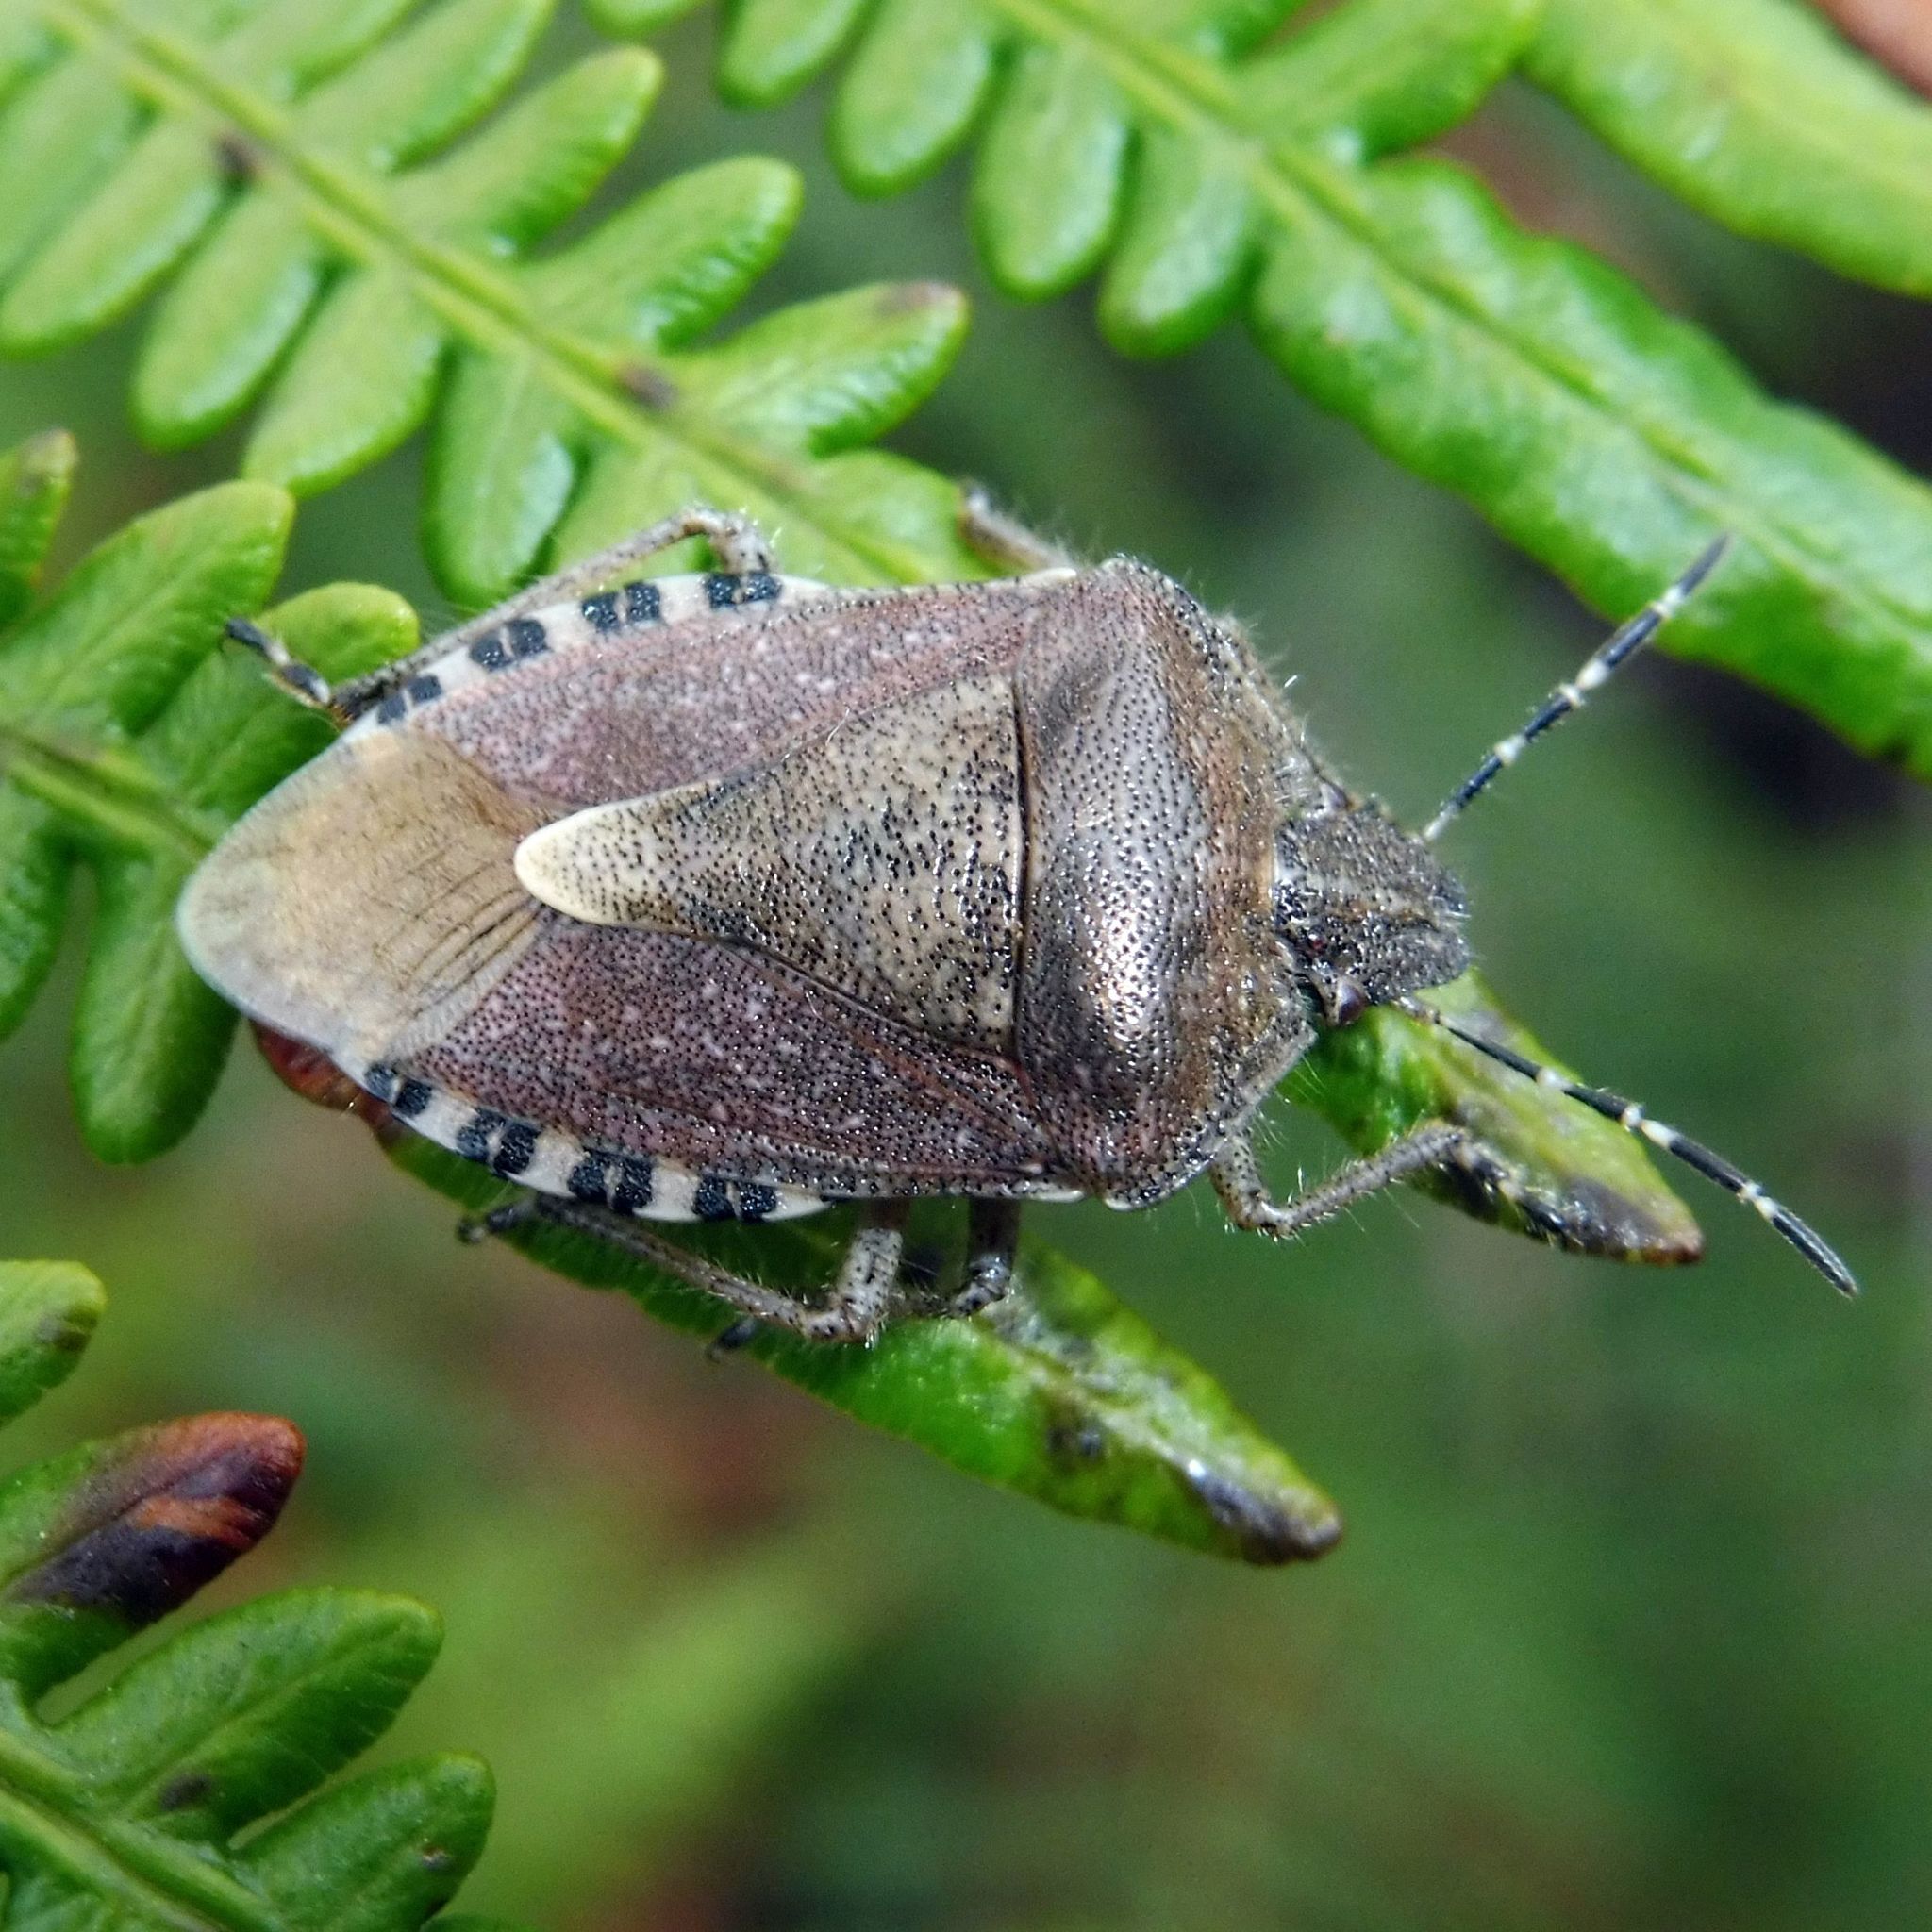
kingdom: Animalia
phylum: Arthropoda
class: Insecta
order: Hemiptera
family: Pentatomidae
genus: Dolycoris
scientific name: Dolycoris baccarum
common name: Sloe bug
